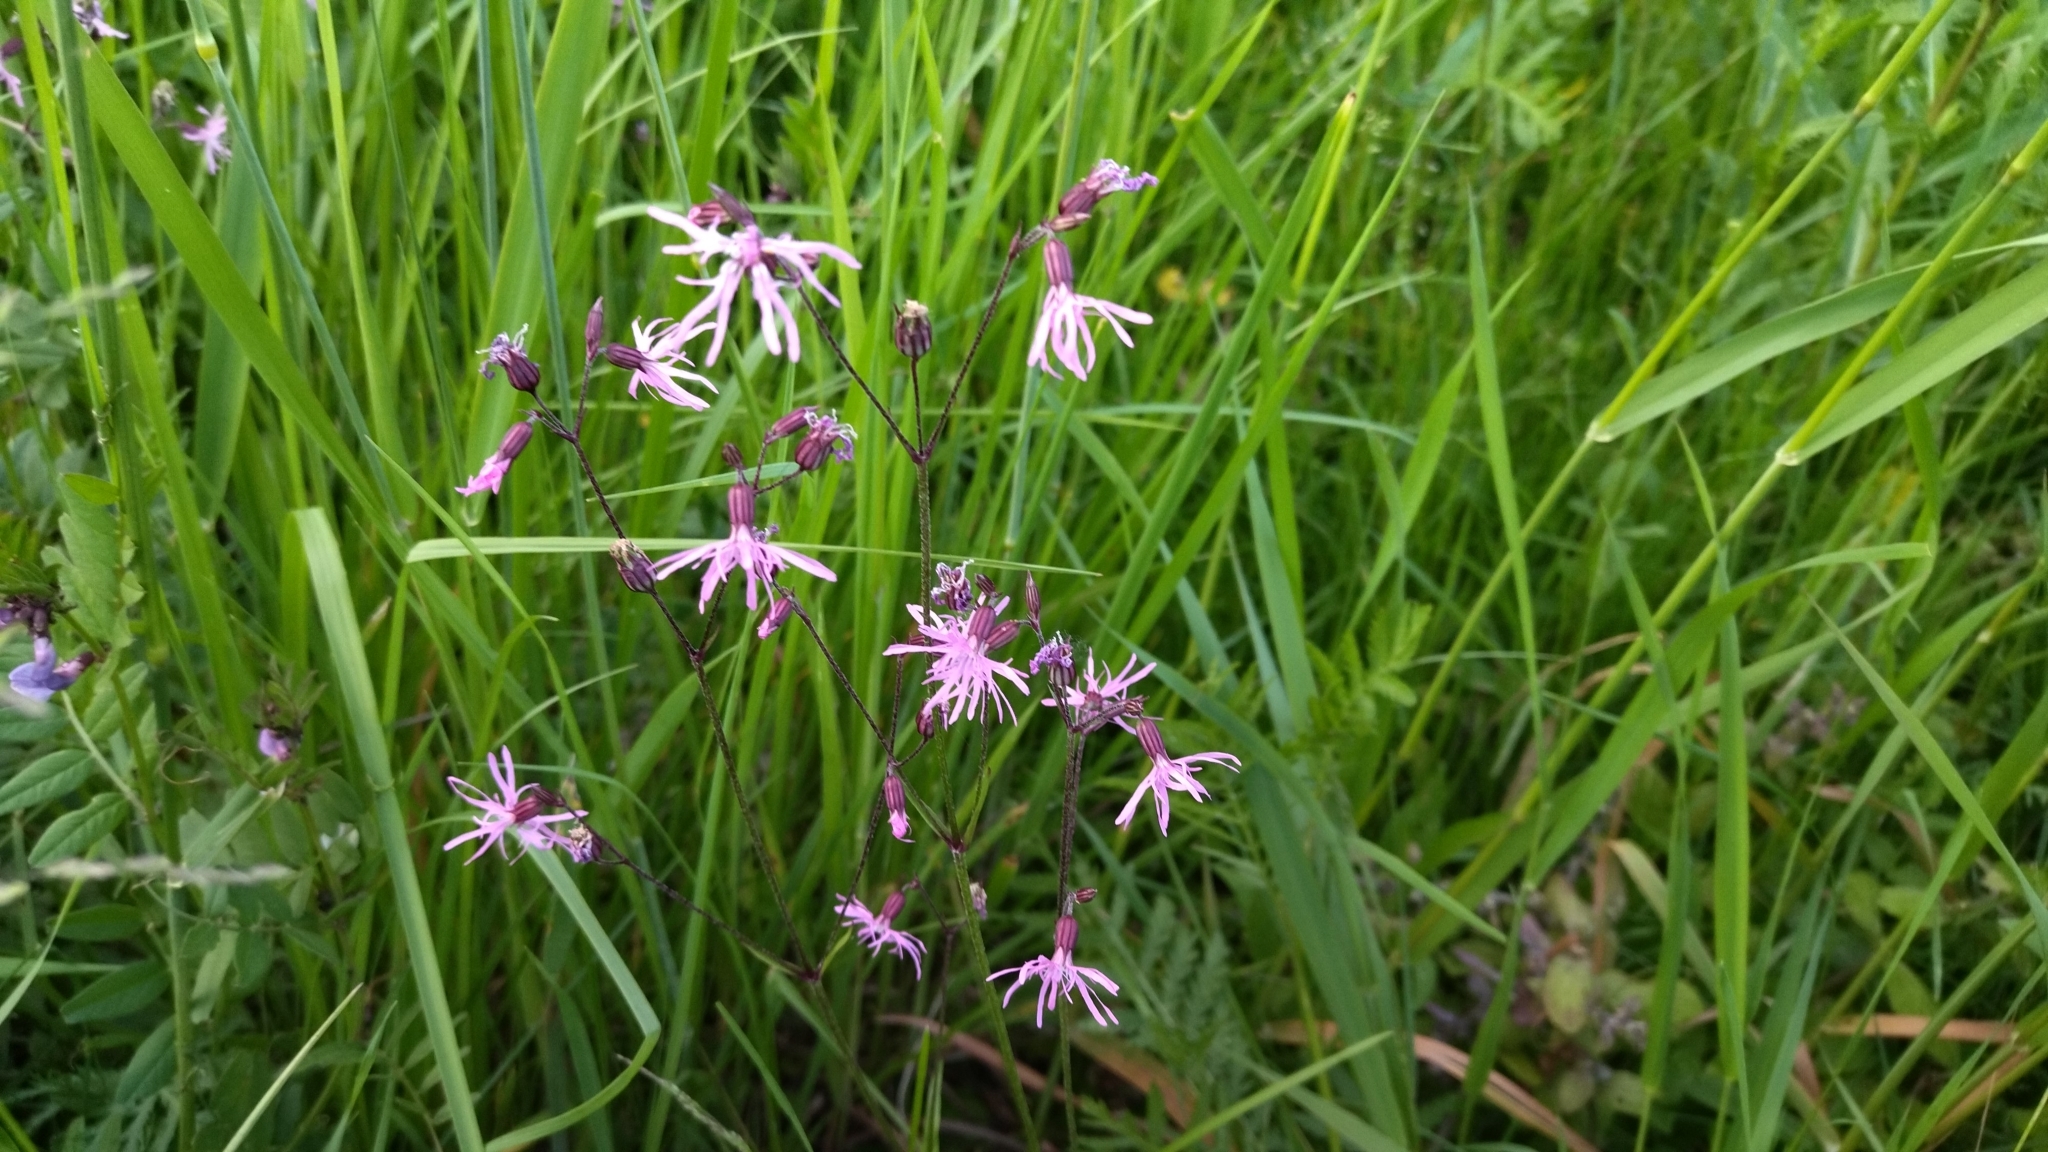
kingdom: Plantae
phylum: Tracheophyta
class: Magnoliopsida
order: Caryophyllales
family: Caryophyllaceae
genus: Silene
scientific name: Silene flos-cuculi
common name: Ragged-robin
